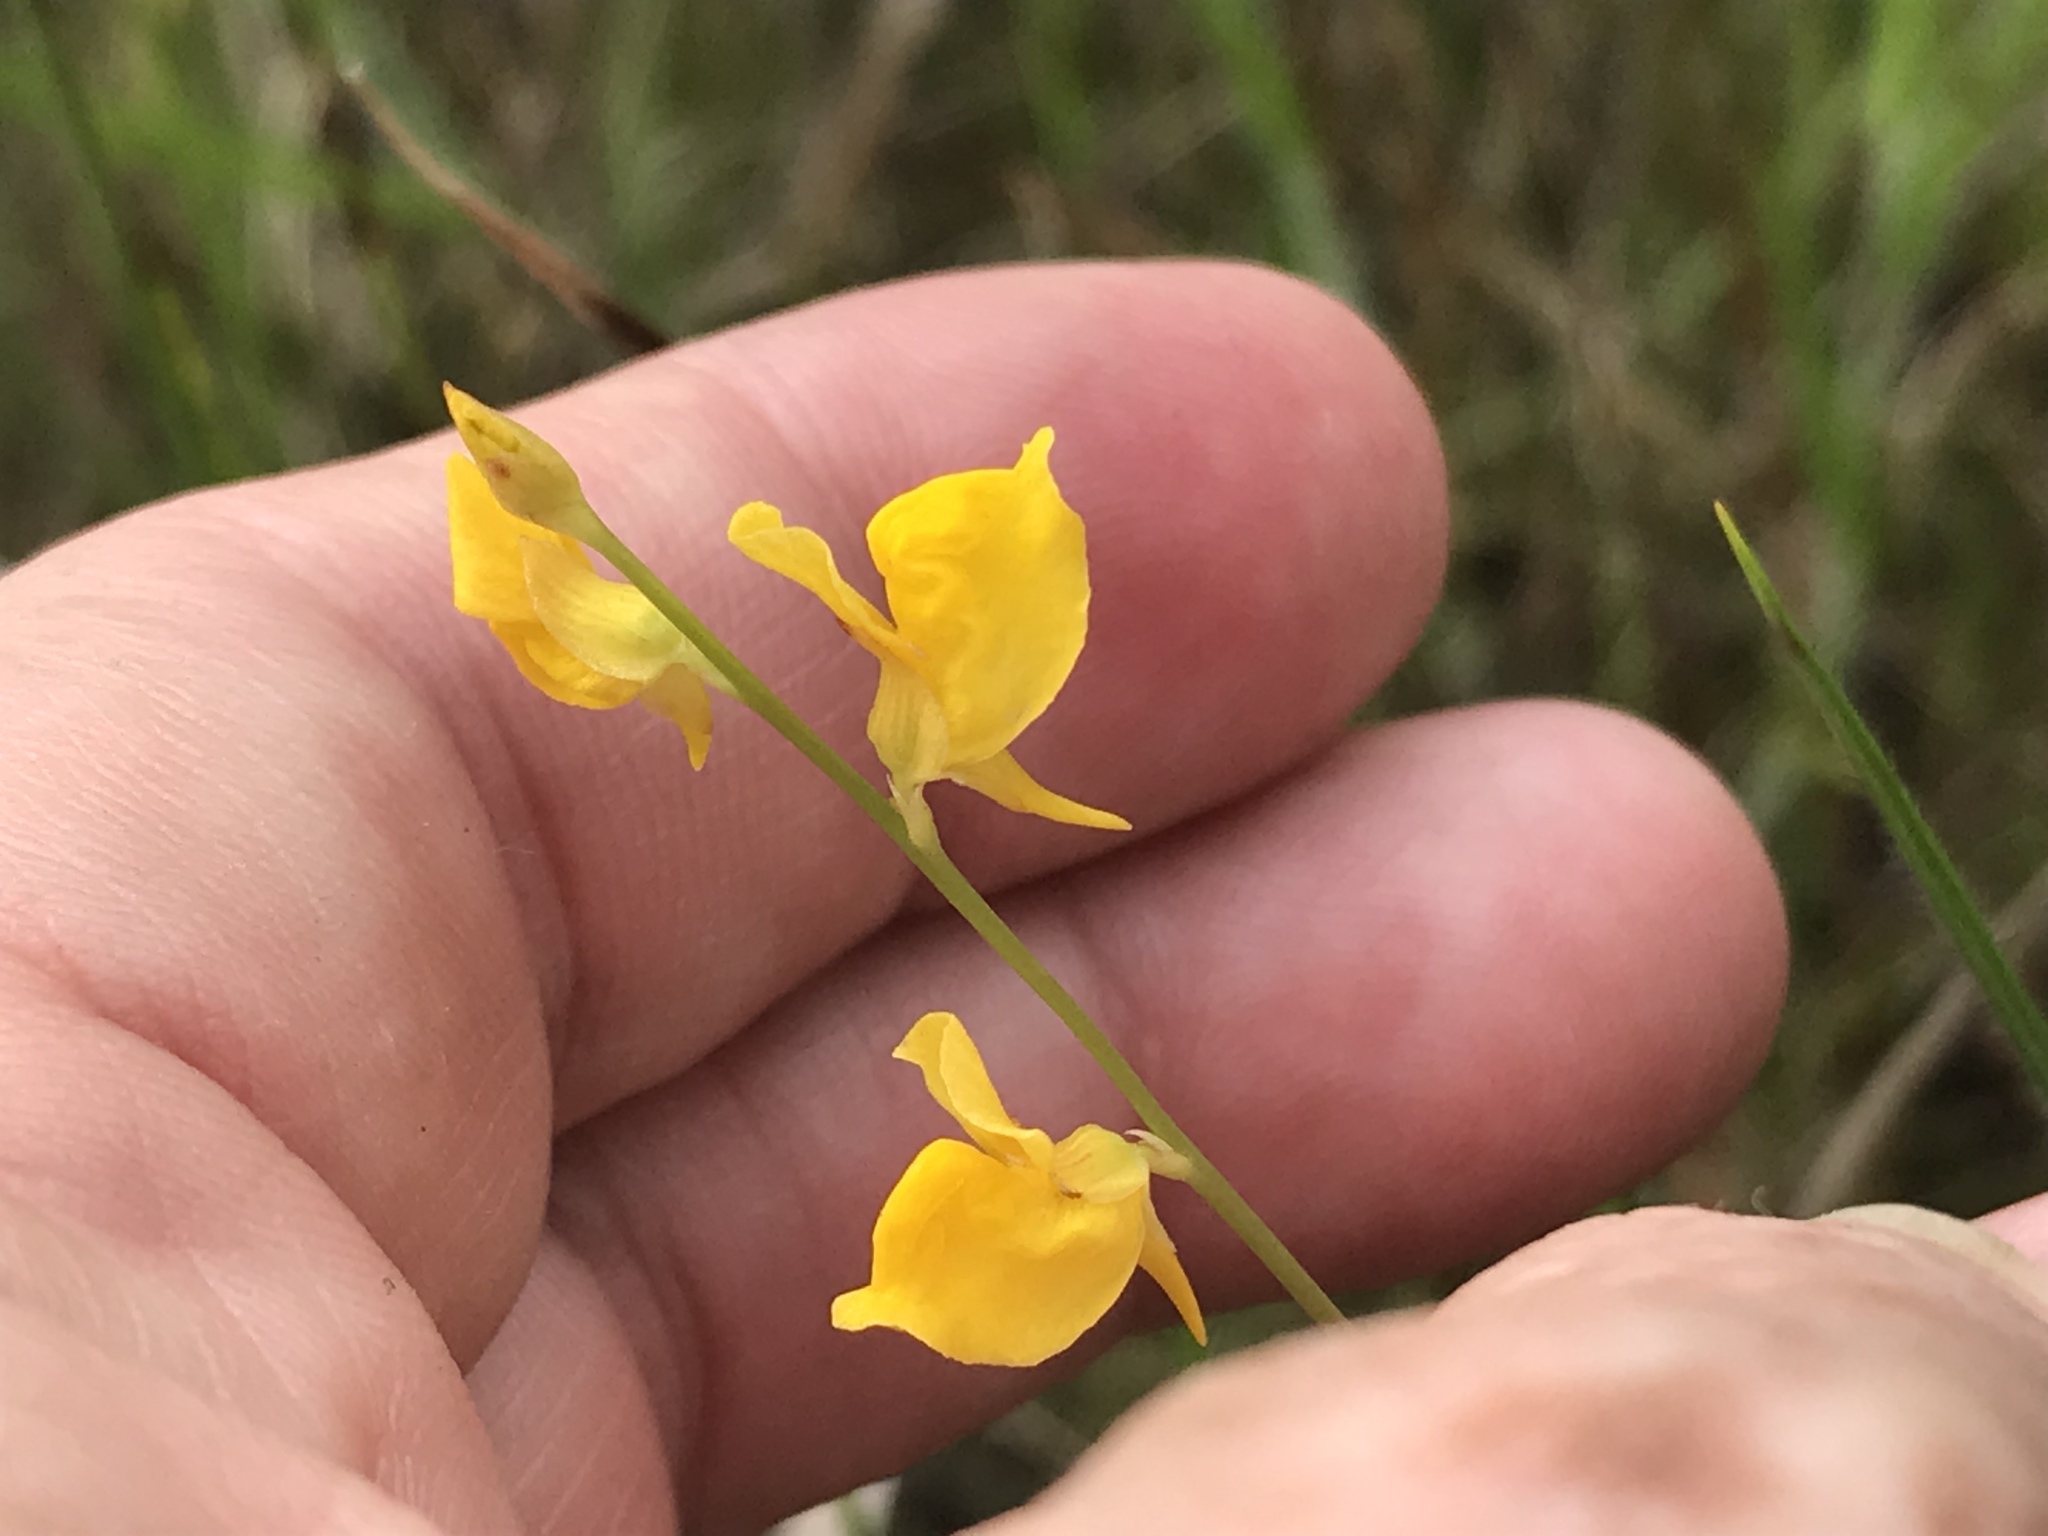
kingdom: Plantae
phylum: Tracheophyta
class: Magnoliopsida
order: Lamiales
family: Lentibulariaceae
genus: Utricularia
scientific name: Utricularia juncea
